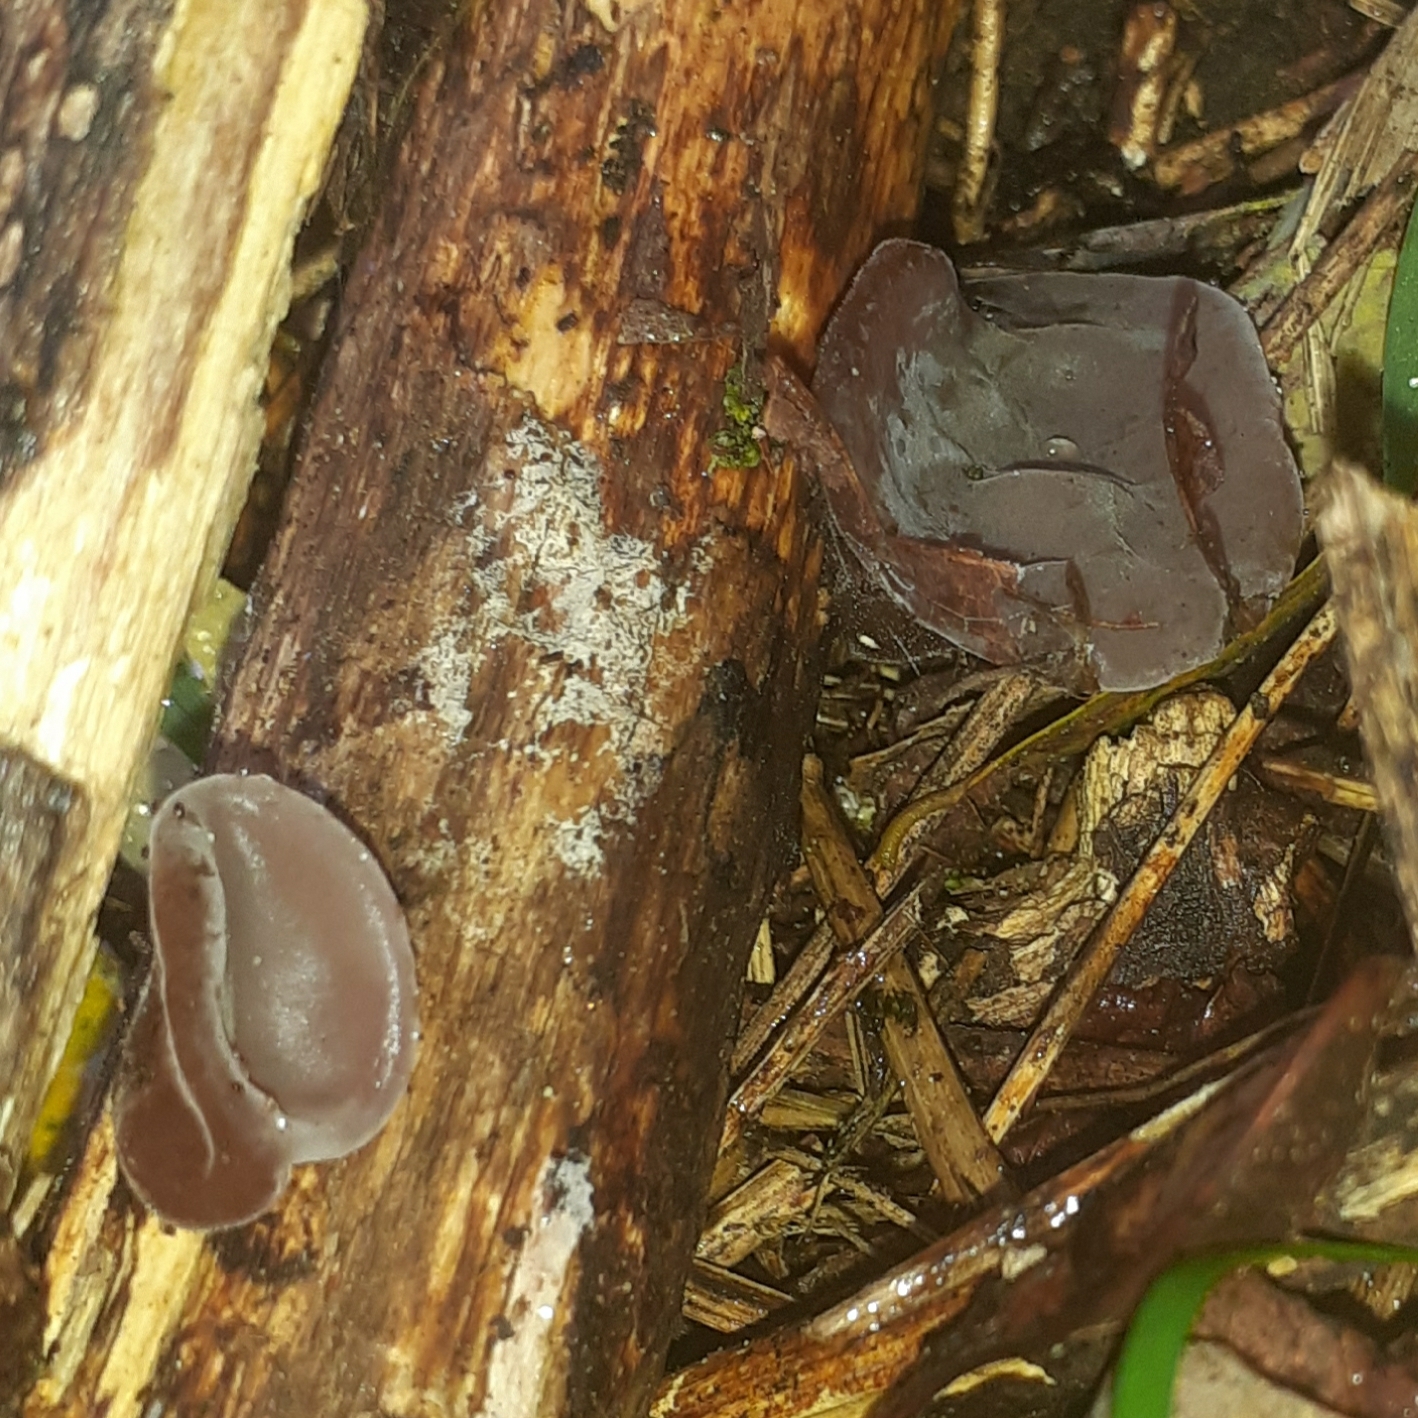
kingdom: Fungi
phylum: Basidiomycota
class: Agaricomycetes
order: Auriculariales
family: Auriculariaceae
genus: Auricularia
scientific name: Auricularia auricula-judae
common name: Jelly ear
